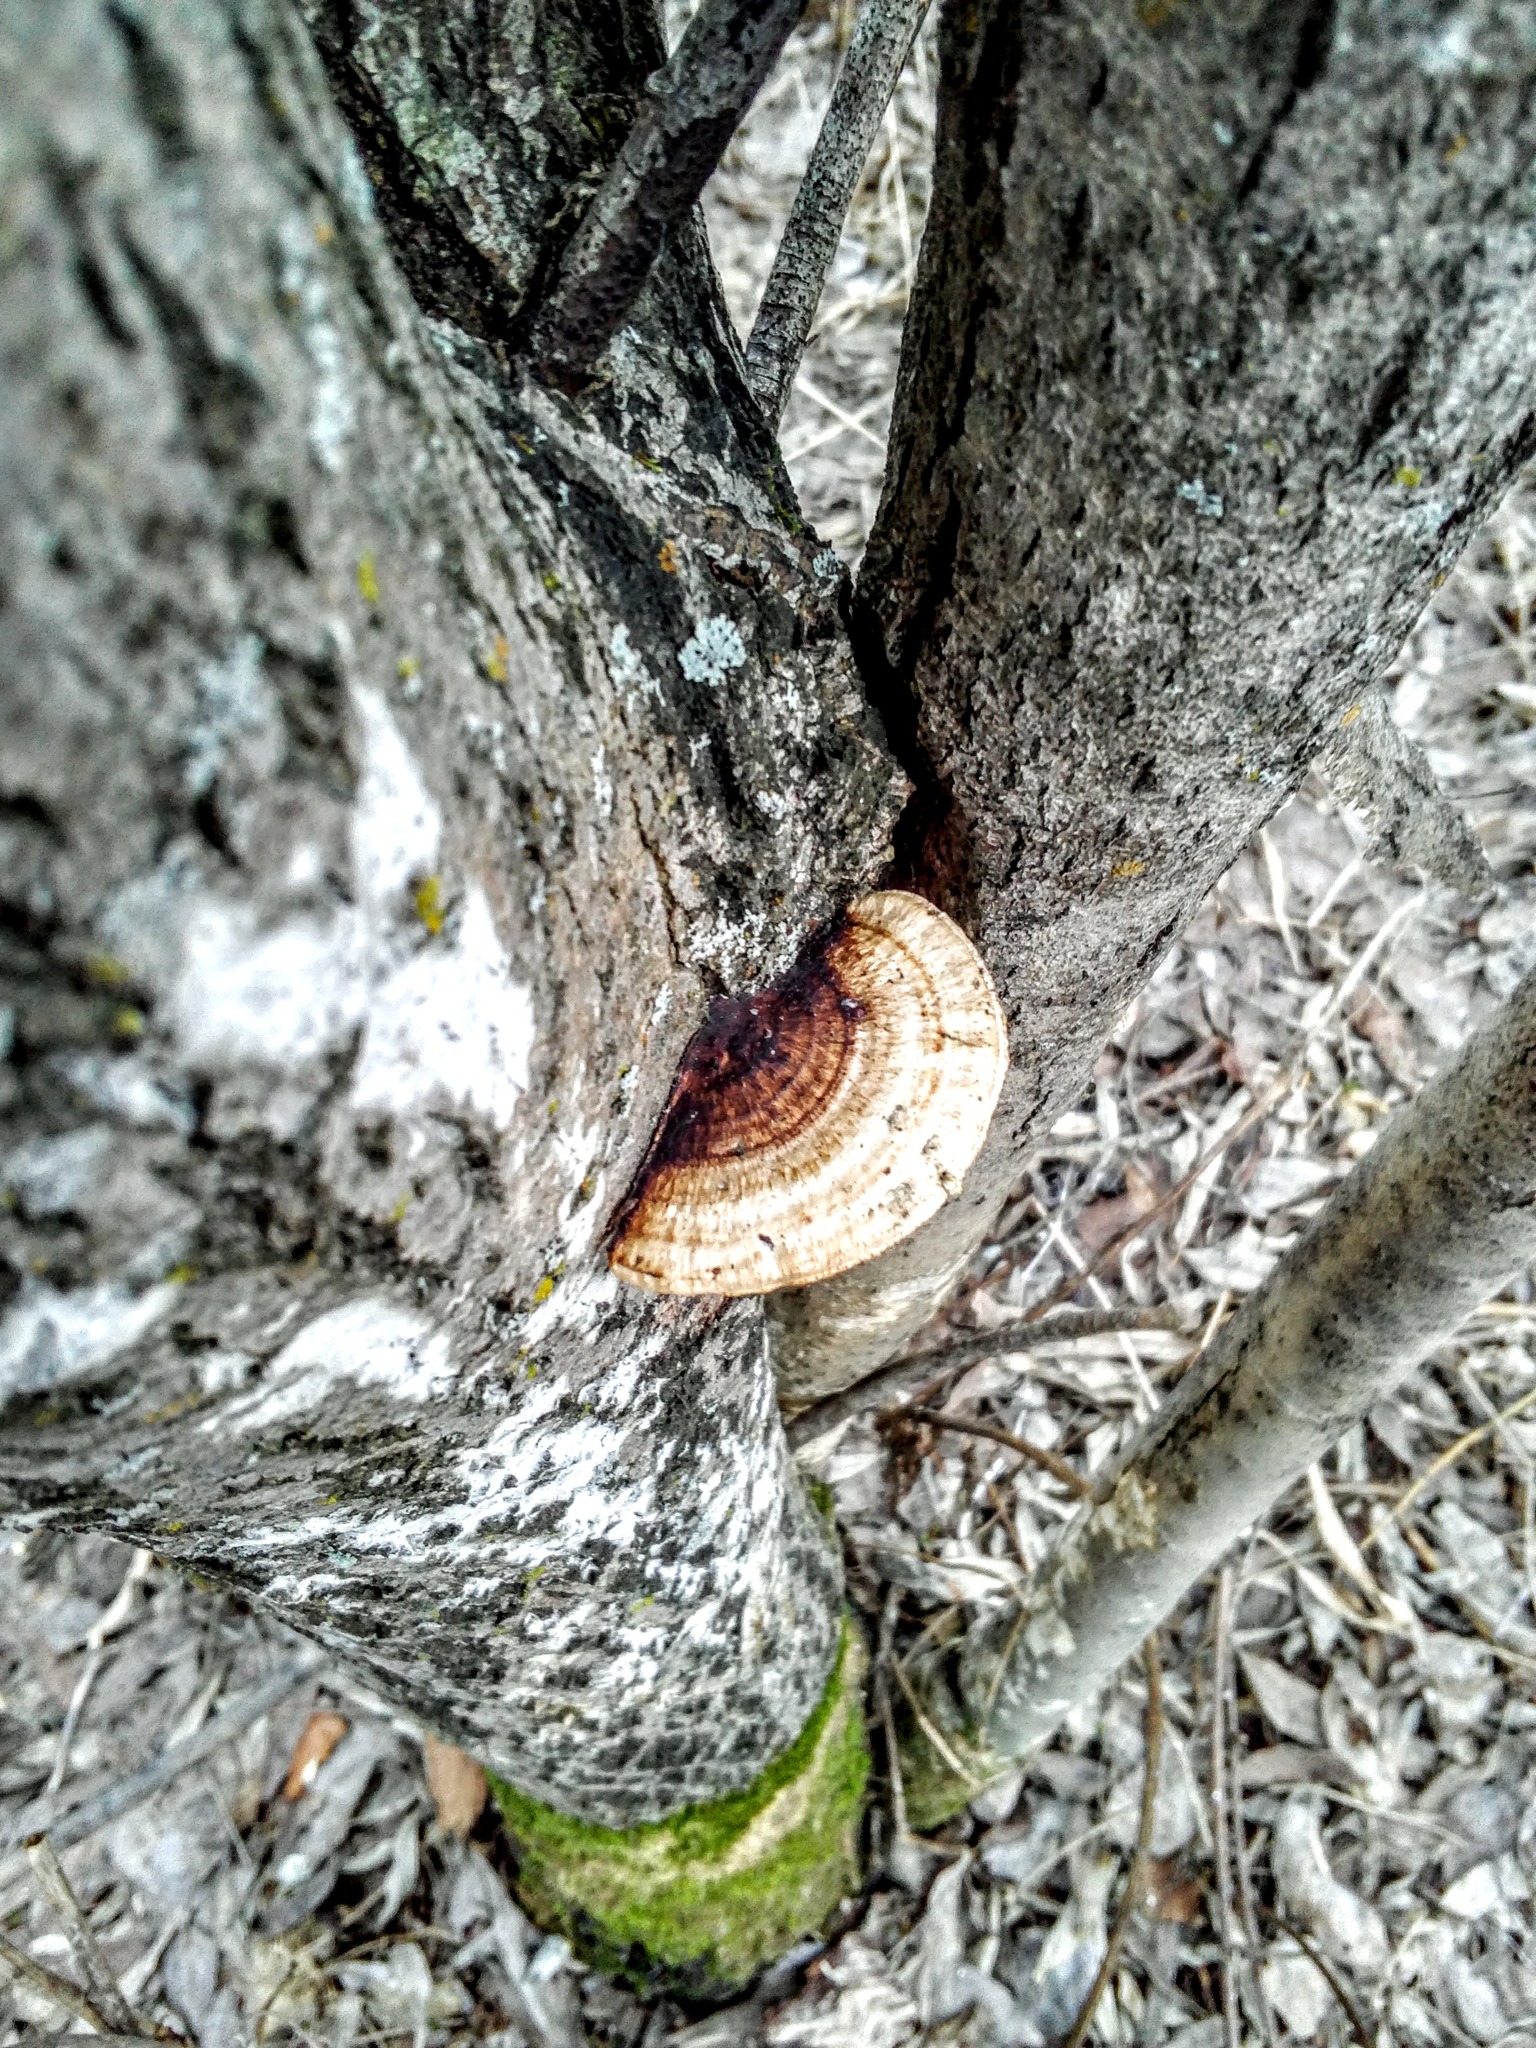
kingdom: Fungi
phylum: Basidiomycota
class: Agaricomycetes
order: Polyporales
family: Polyporaceae
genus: Daedaleopsis
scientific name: Daedaleopsis confragosa
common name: Blushing bracket
